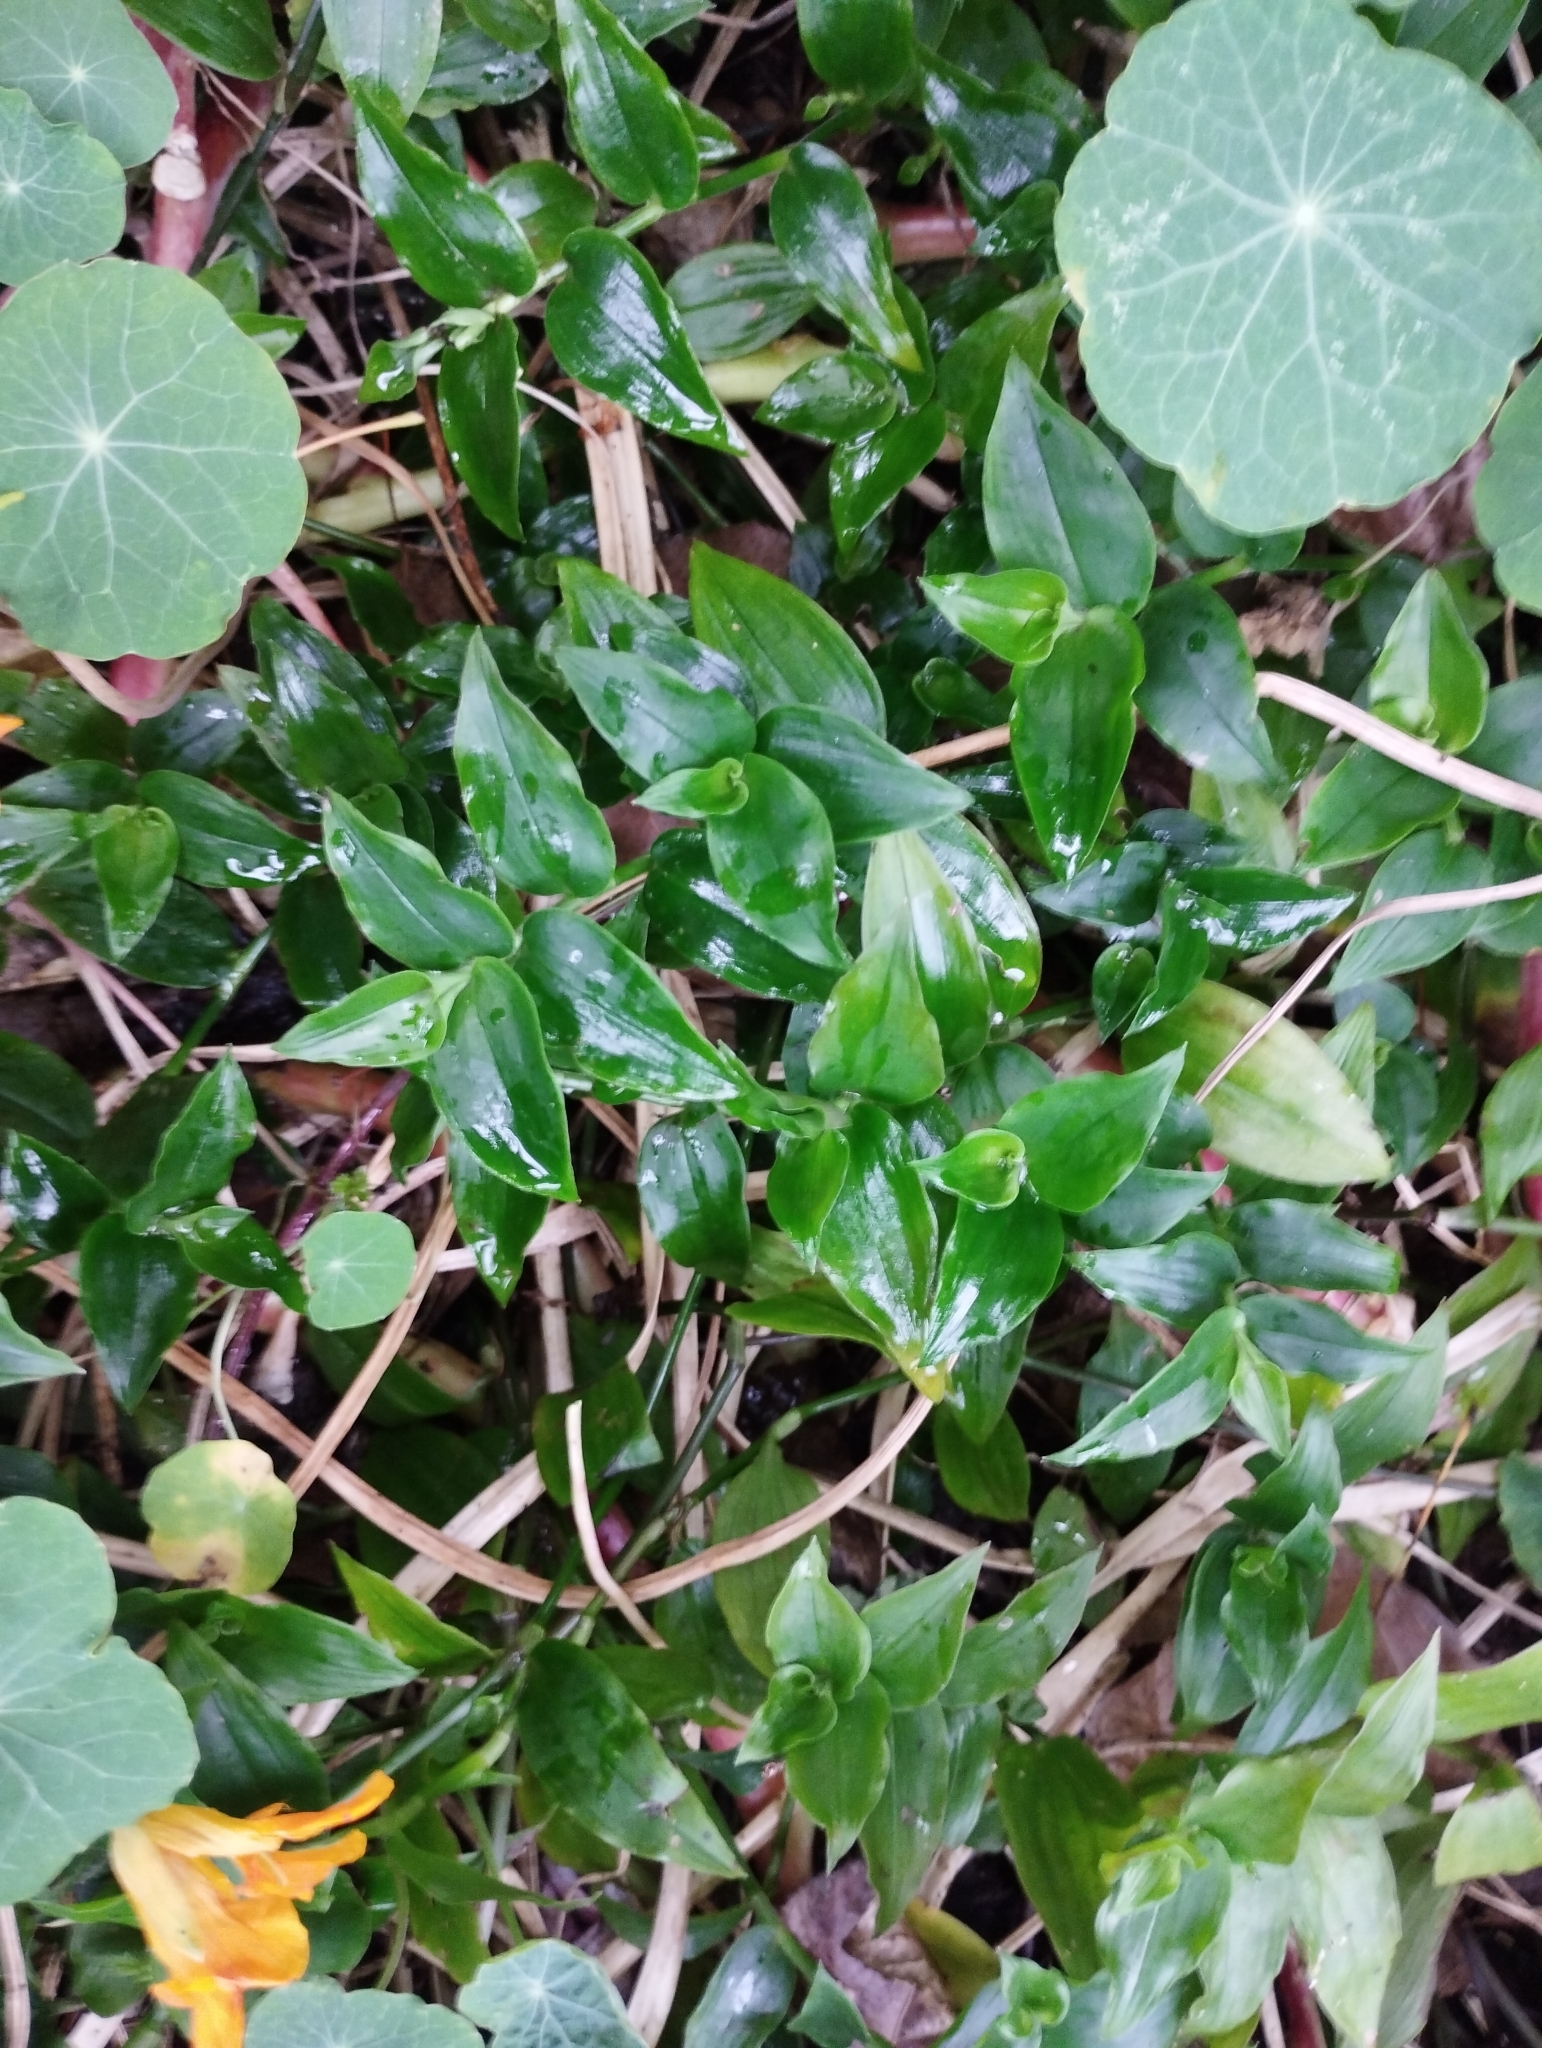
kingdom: Plantae
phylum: Tracheophyta
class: Liliopsida
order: Commelinales
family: Commelinaceae
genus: Tradescantia
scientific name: Tradescantia fluminensis
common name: Wandering-jew
